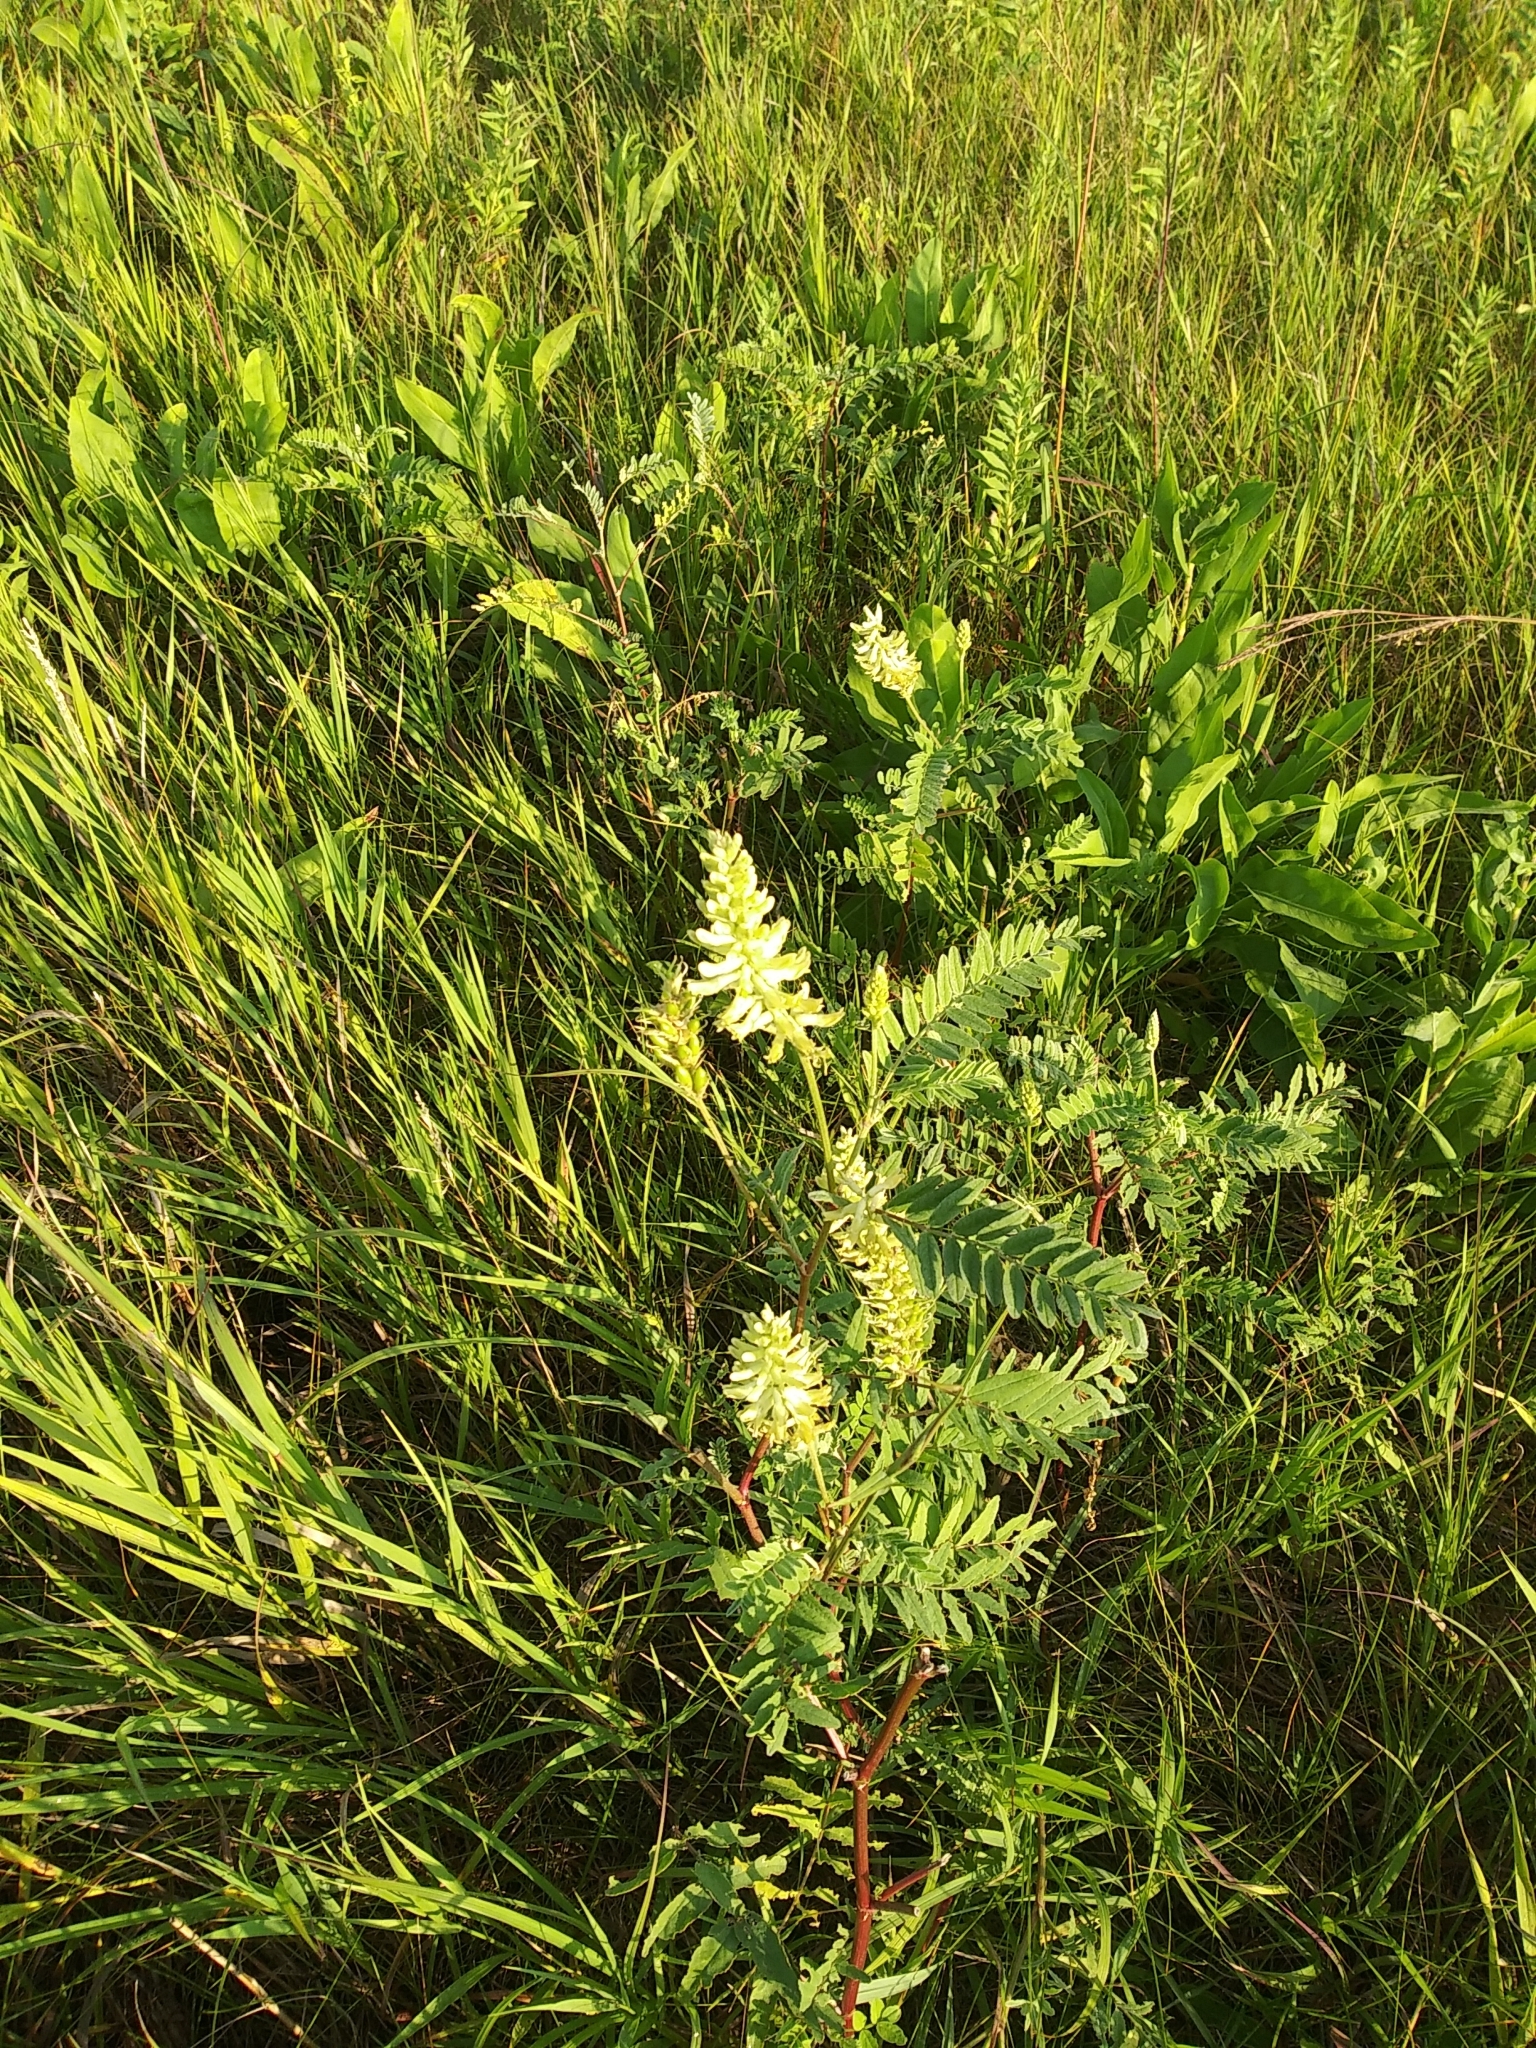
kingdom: Plantae
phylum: Tracheophyta
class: Magnoliopsida
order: Fabales
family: Fabaceae
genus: Astragalus
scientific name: Astragalus canadensis
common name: Canada milk-vetch
